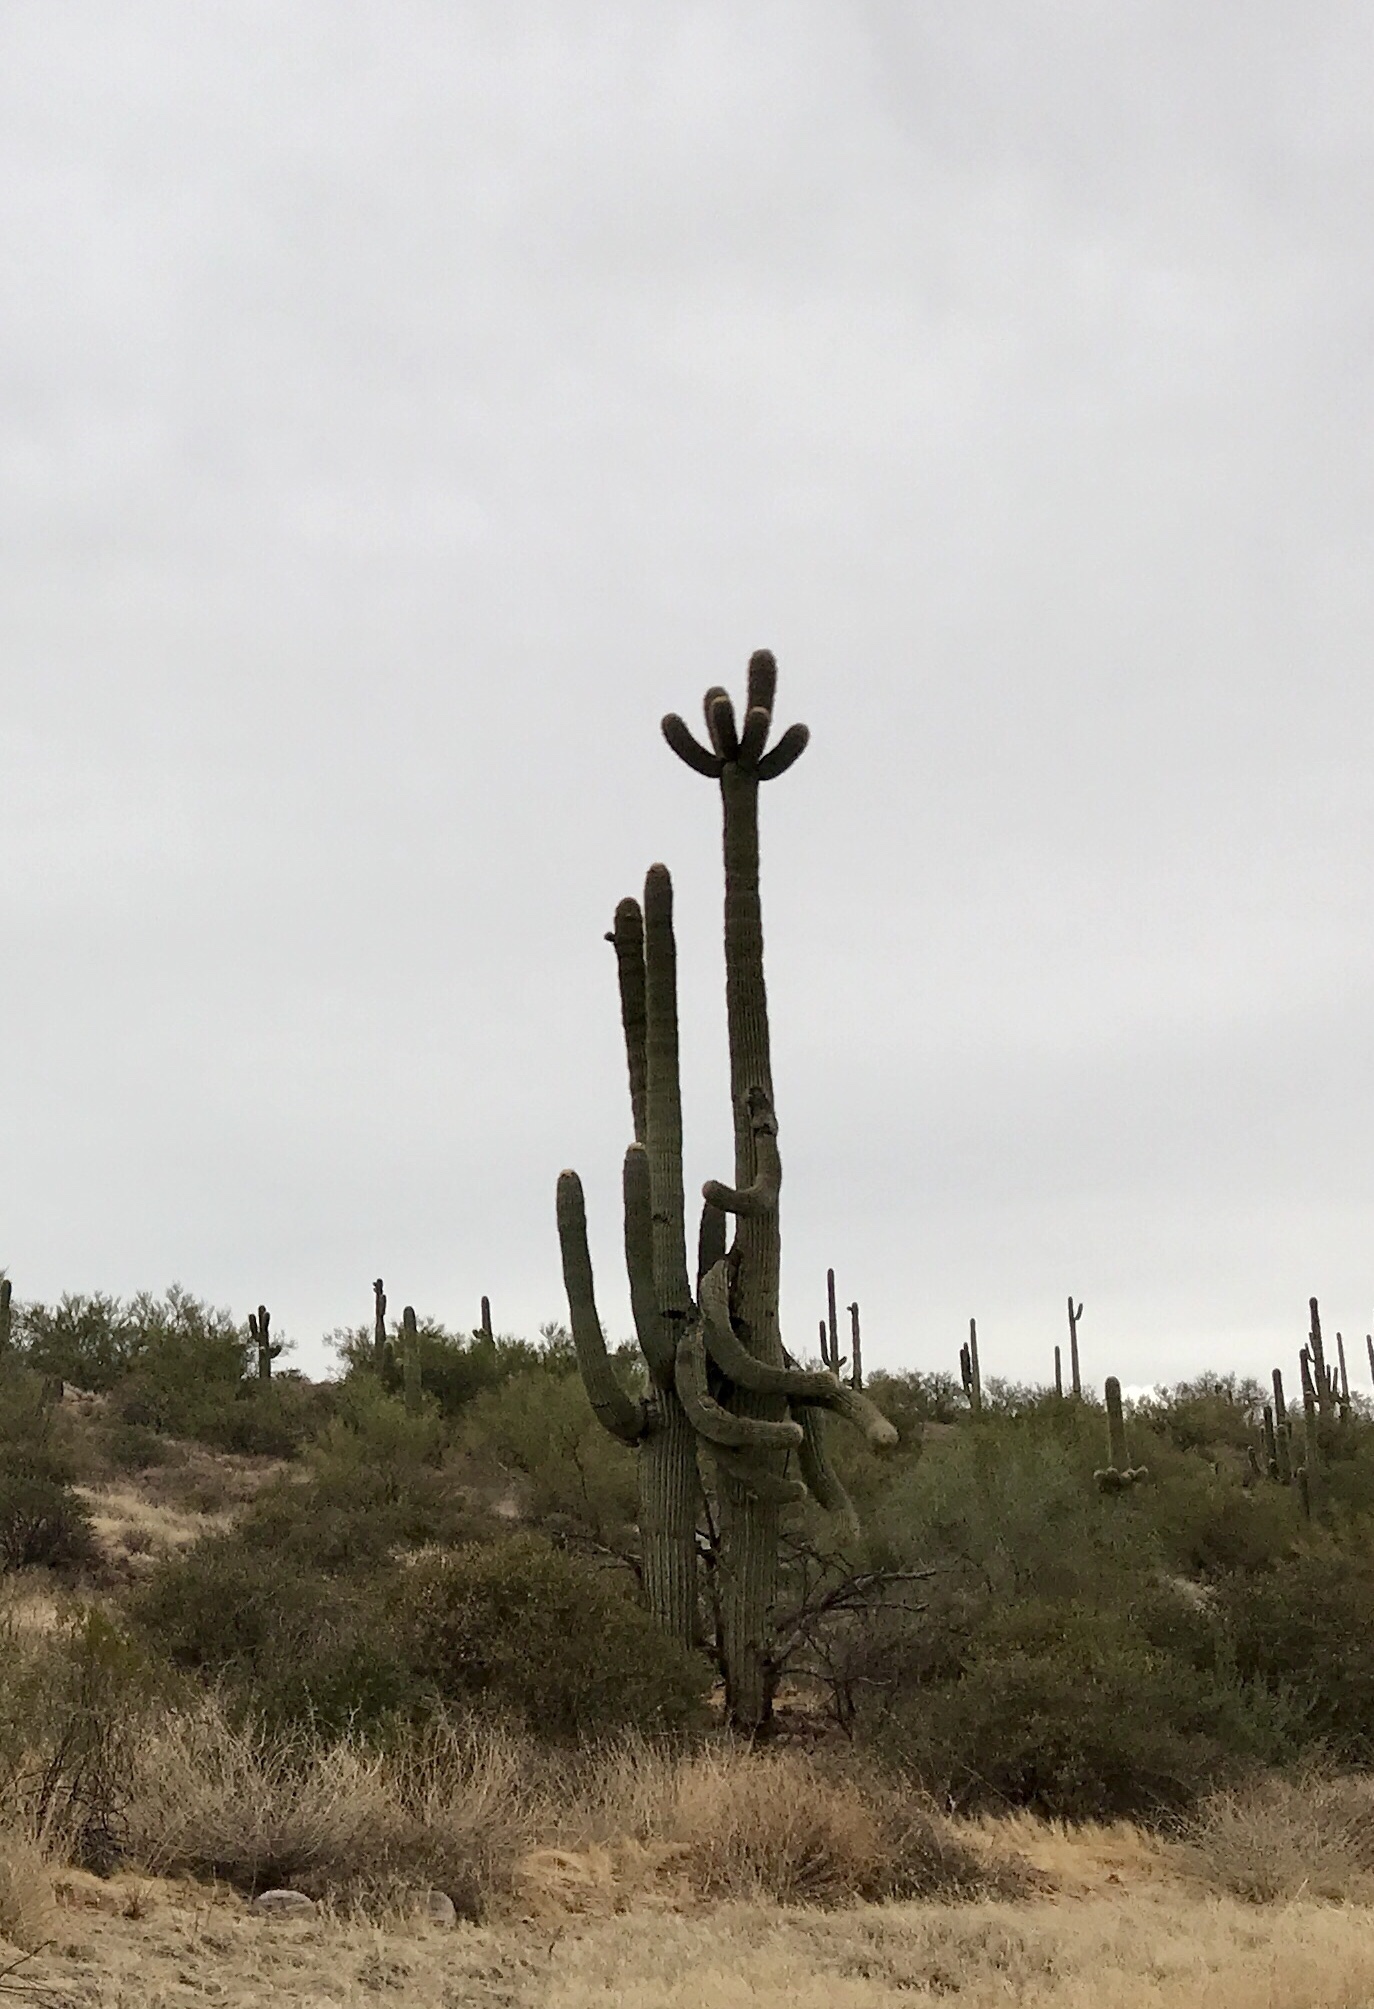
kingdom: Plantae
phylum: Tracheophyta
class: Magnoliopsida
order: Caryophyllales
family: Cactaceae
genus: Carnegiea
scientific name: Carnegiea gigantea
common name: Saguaro
